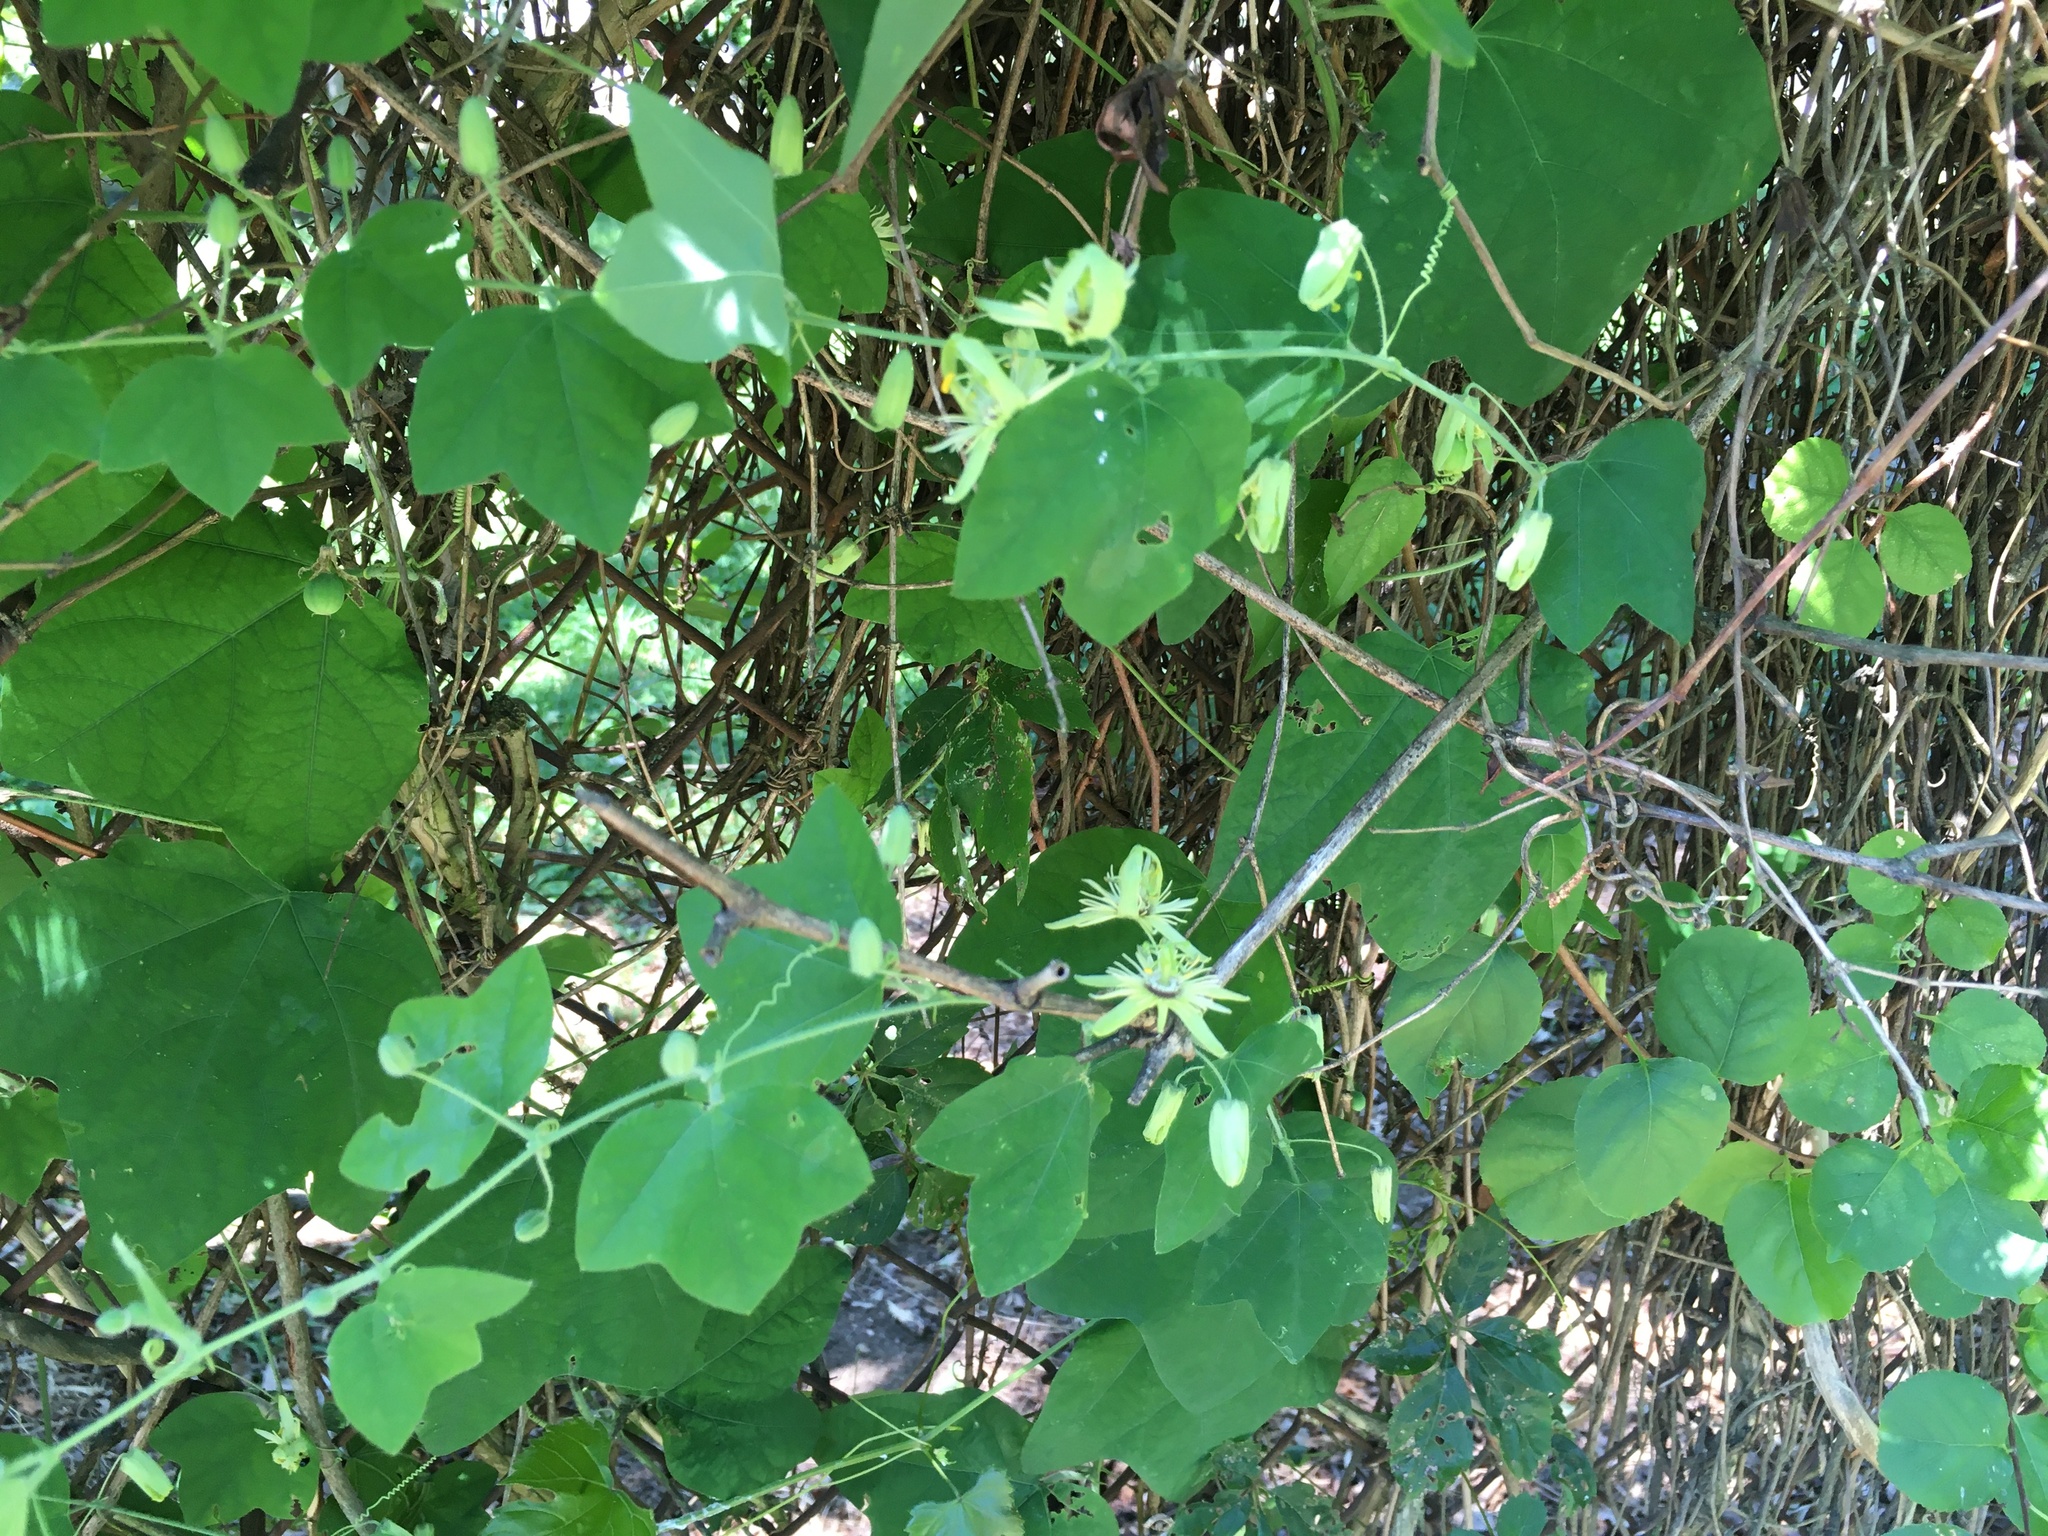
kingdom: Plantae
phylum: Tracheophyta
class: Magnoliopsida
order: Malpighiales
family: Passifloraceae
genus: Passiflora
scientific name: Passiflora lutea
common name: Yellow passionflower
